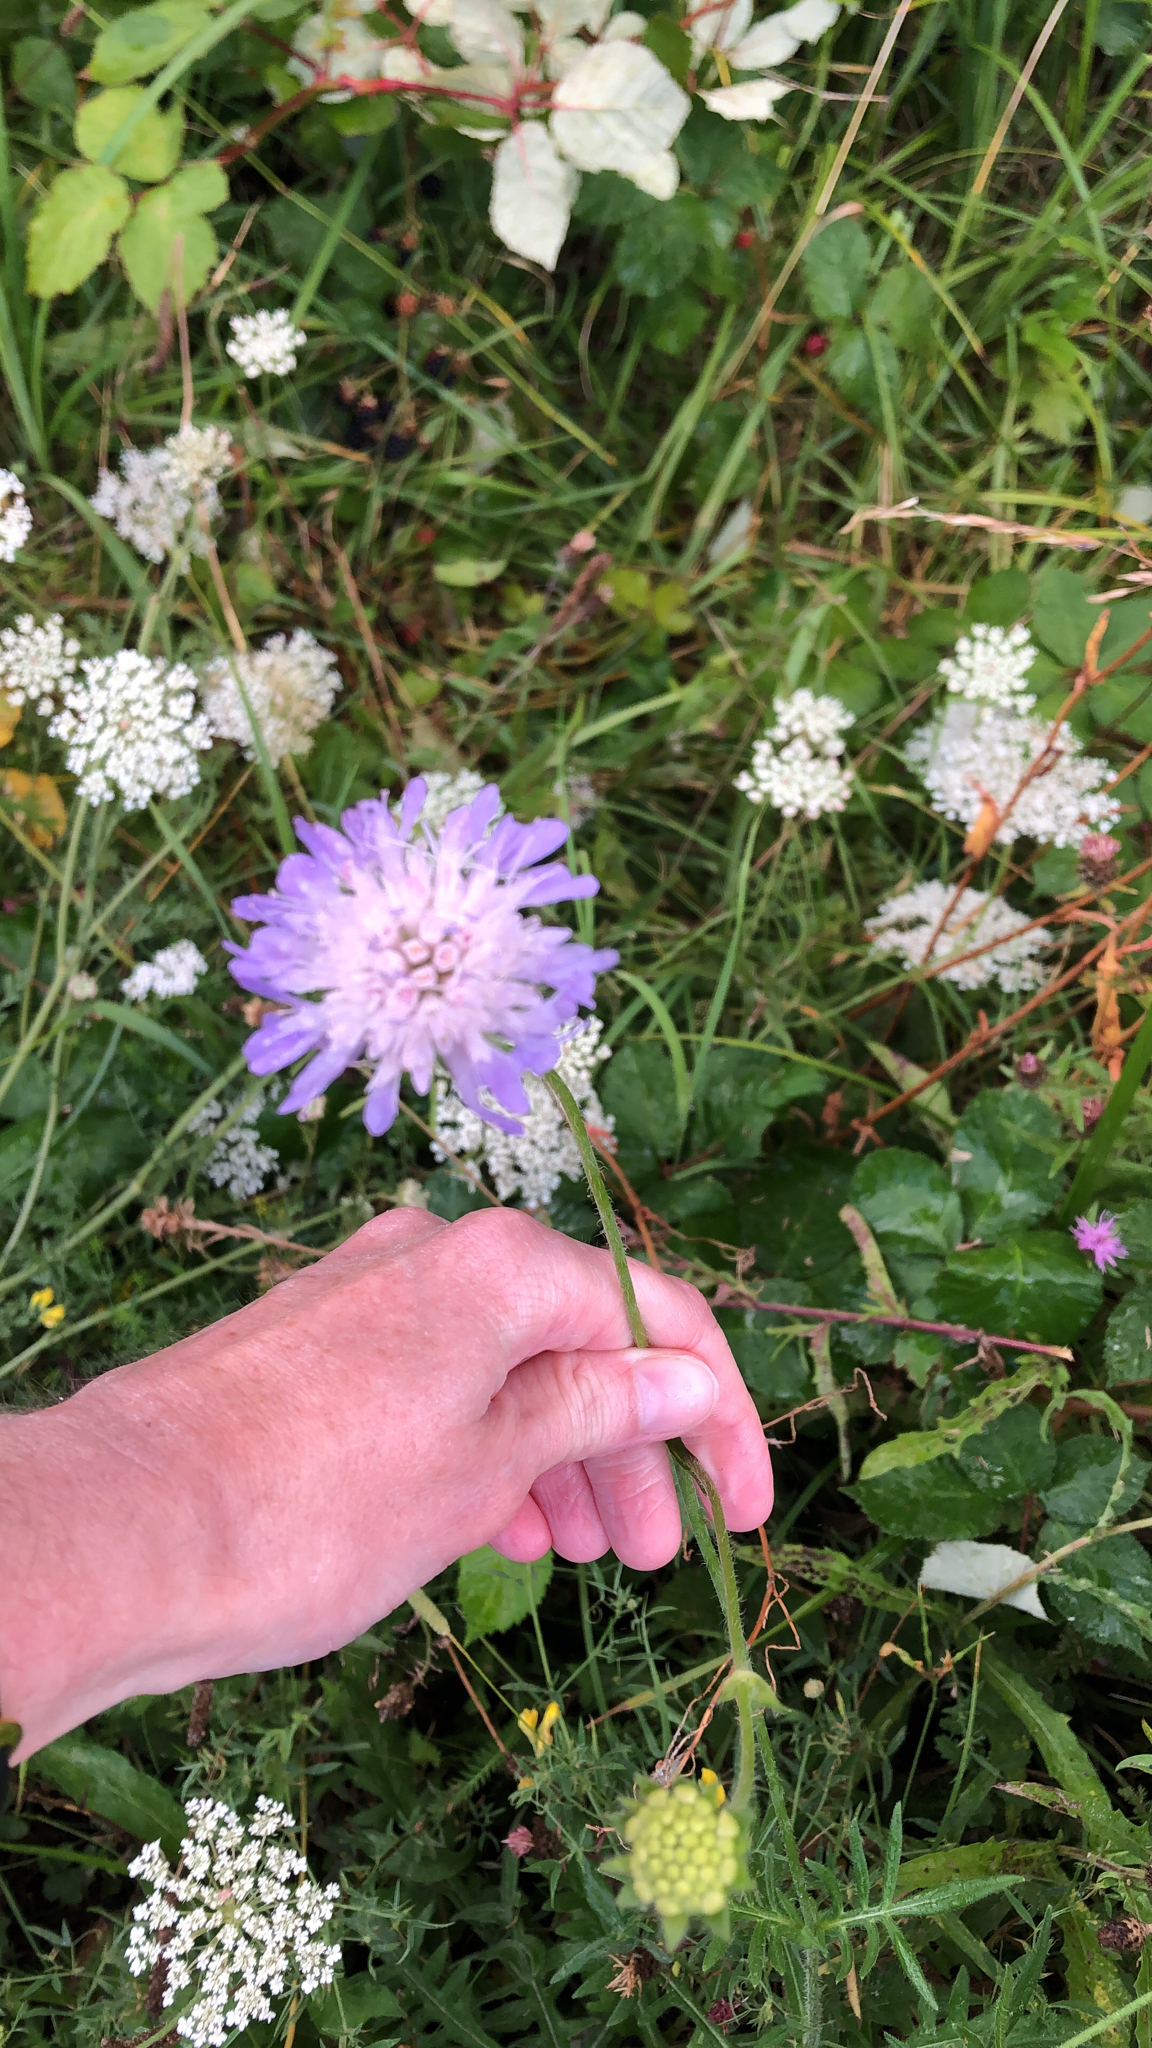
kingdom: Plantae
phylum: Tracheophyta
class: Magnoliopsida
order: Dipsacales
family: Caprifoliaceae
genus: Knautia
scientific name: Knautia arvensis
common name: Field scabiosa
